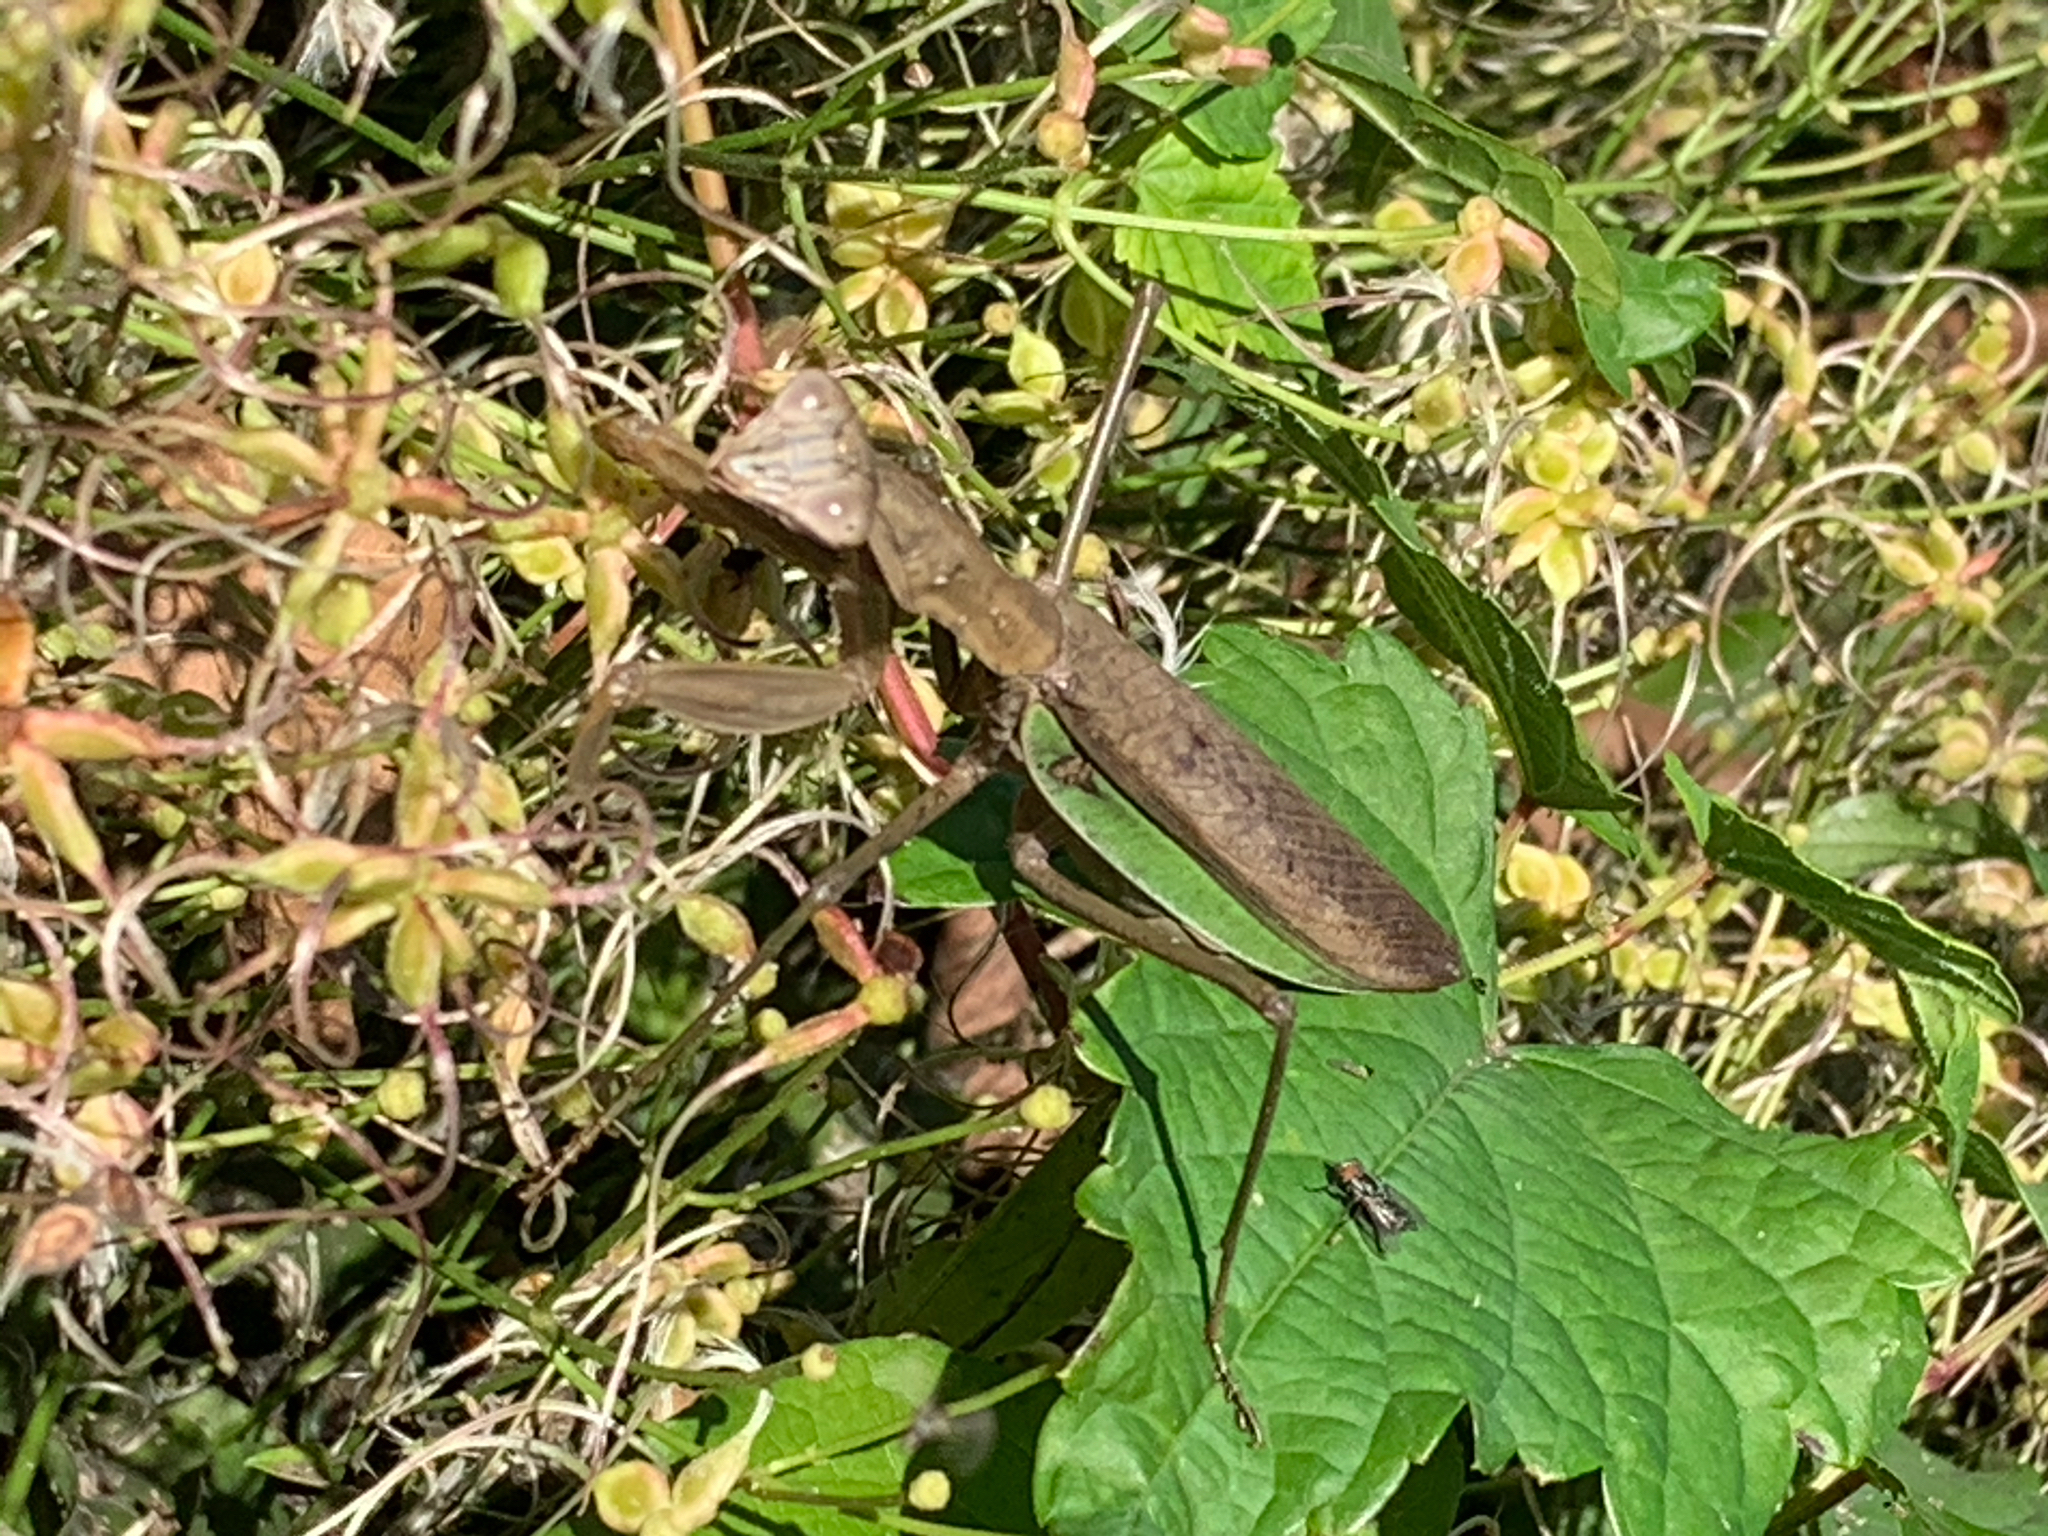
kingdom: Animalia
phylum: Arthropoda
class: Insecta
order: Mantodea
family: Mantidae
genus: Tenodera
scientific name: Tenodera sinensis
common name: Chinese mantis
